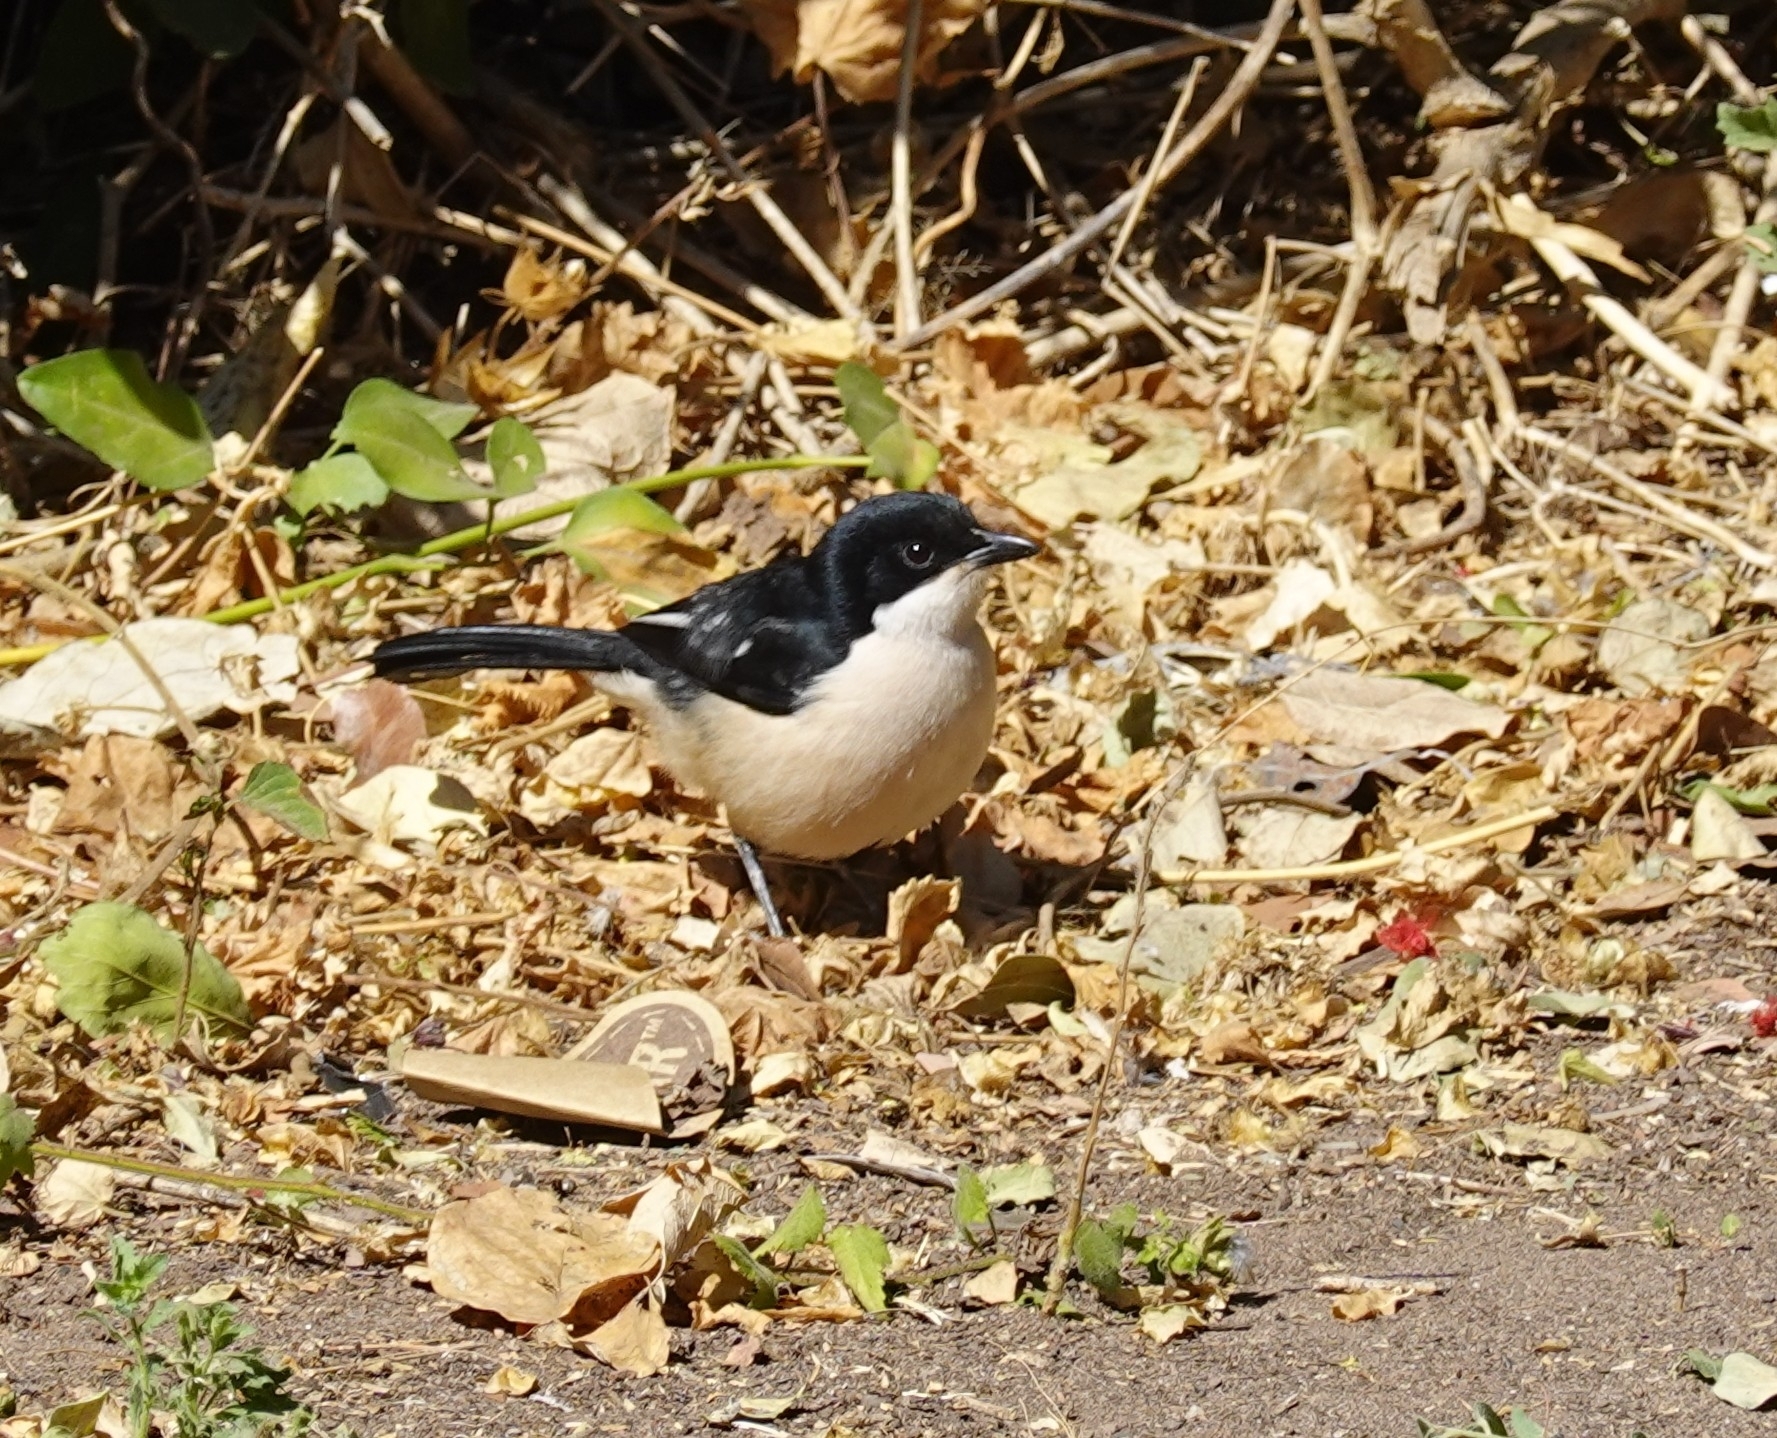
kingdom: Animalia
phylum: Chordata
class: Aves
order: Passeriformes
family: Malaconotidae
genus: Laniarius
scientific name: Laniarius major
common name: Tropical boubou
